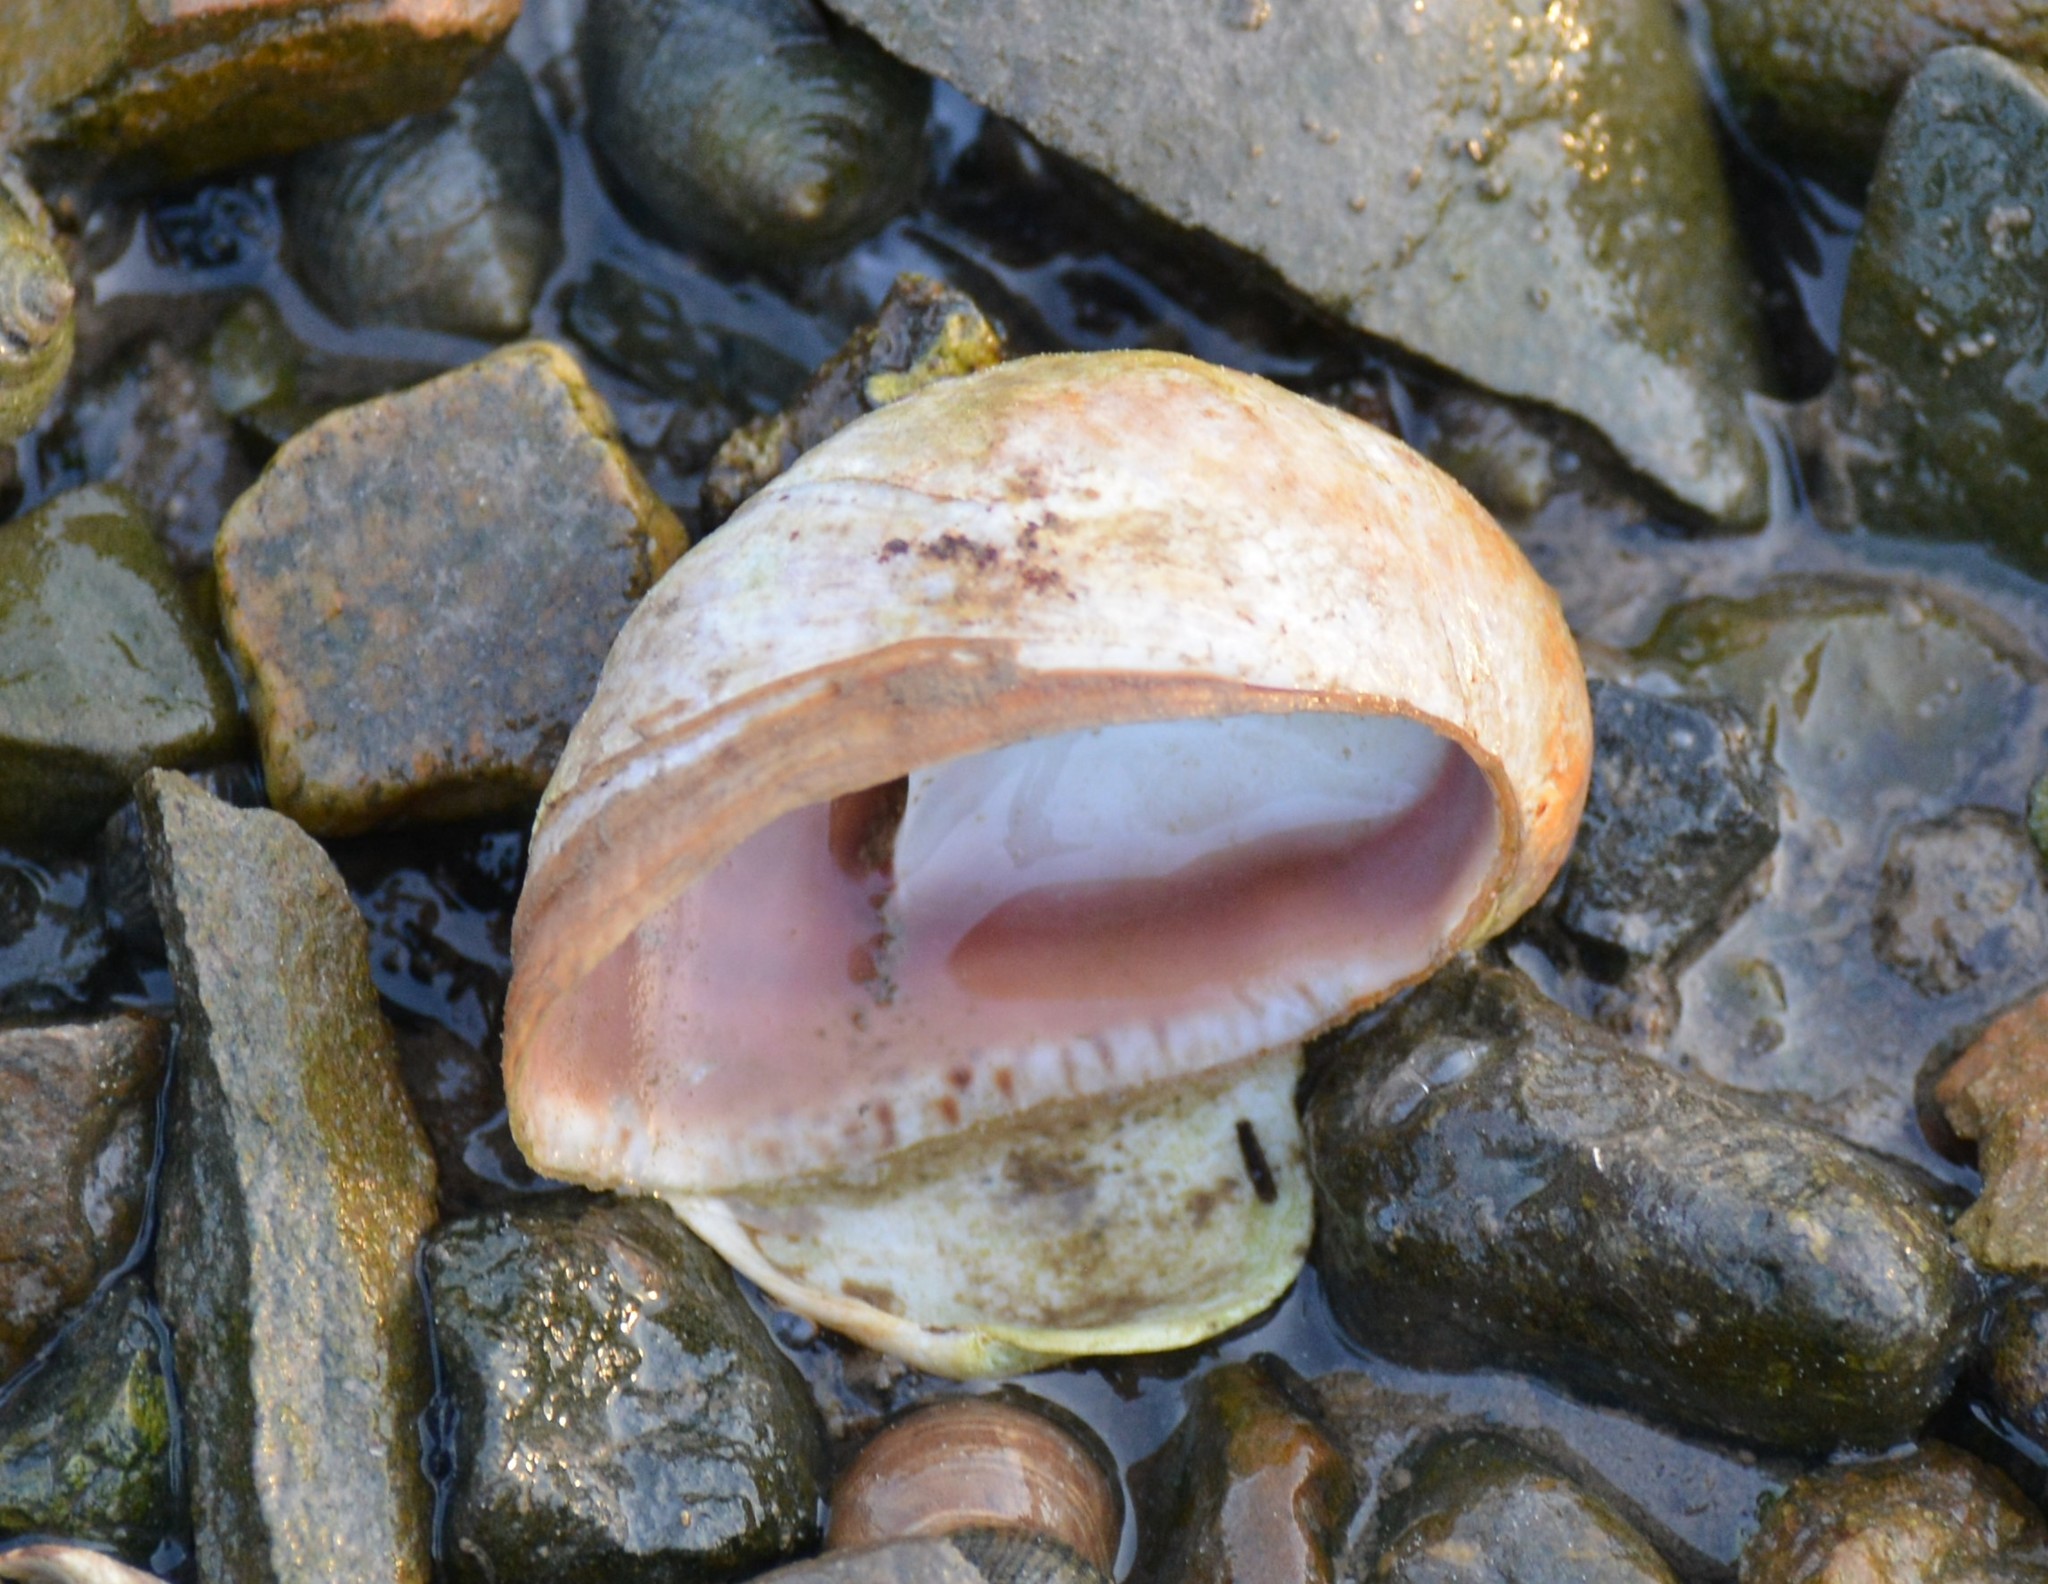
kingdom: Animalia
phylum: Mollusca
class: Gastropoda
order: Littorinimorpha
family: Calyptraeidae
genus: Crepidula
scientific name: Crepidula fornicata
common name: Slipper limpet
